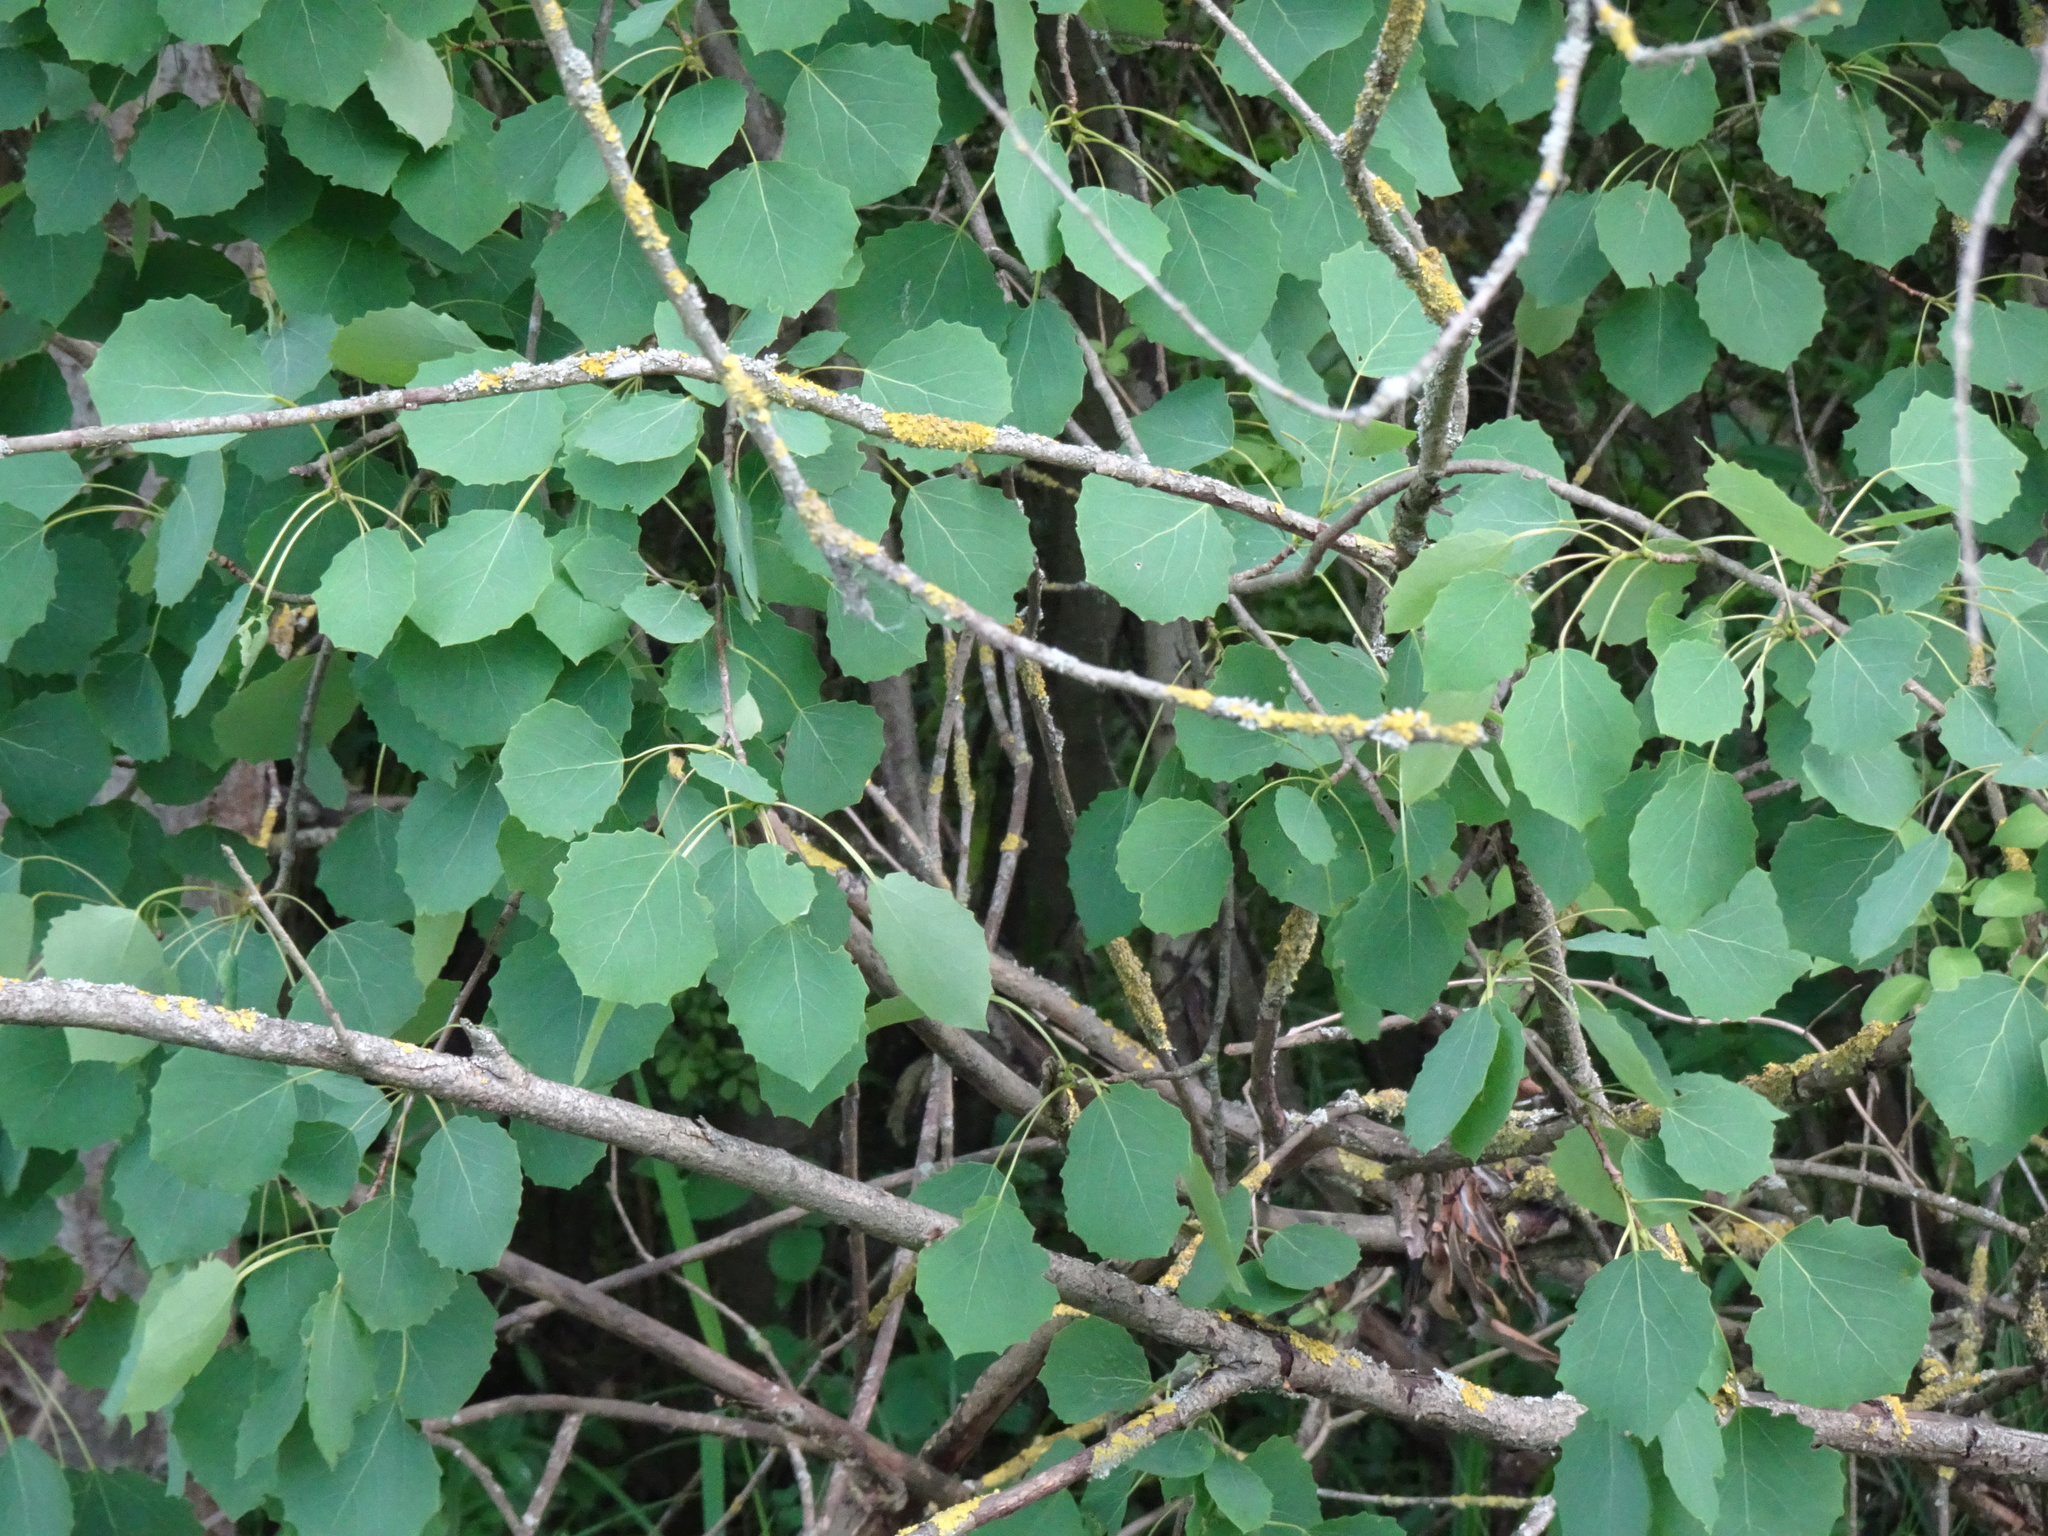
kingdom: Plantae
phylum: Tracheophyta
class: Magnoliopsida
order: Malpighiales
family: Salicaceae
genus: Populus
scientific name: Populus tremula
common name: European aspen
